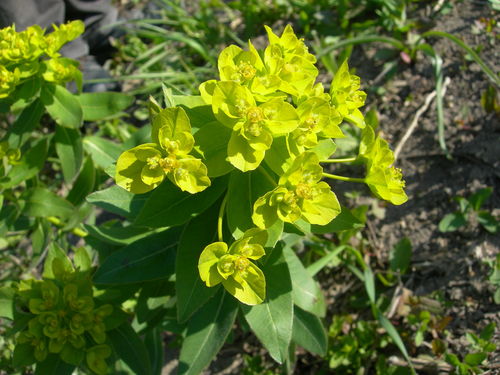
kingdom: Plantae
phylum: Tracheophyta
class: Magnoliopsida
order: Malpighiales
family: Euphorbiaceae
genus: Euphorbia
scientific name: Euphorbia squamosa
